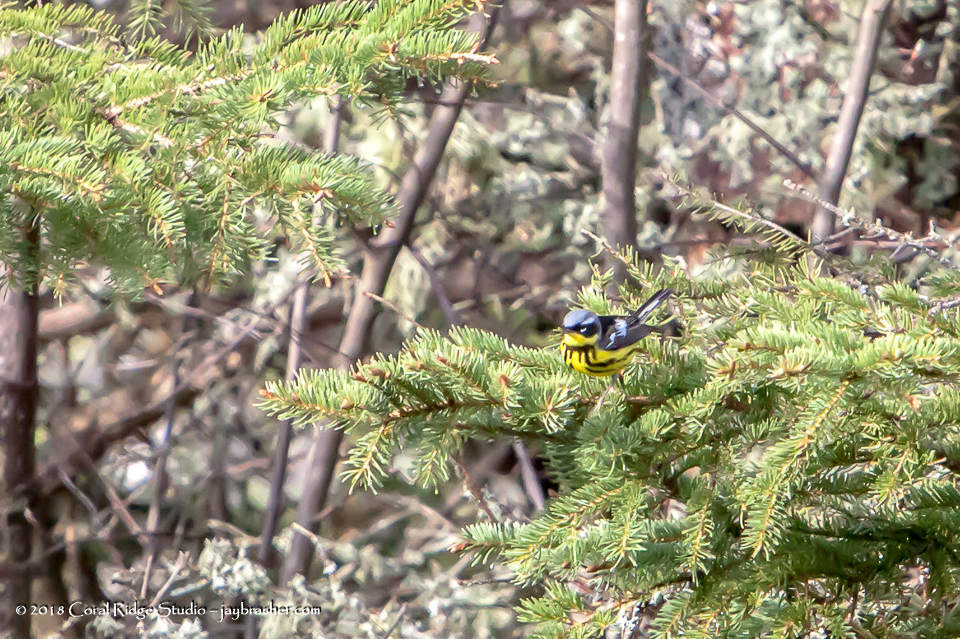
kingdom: Animalia
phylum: Chordata
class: Aves
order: Passeriformes
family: Parulidae
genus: Setophaga
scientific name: Setophaga magnolia
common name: Magnolia warbler
